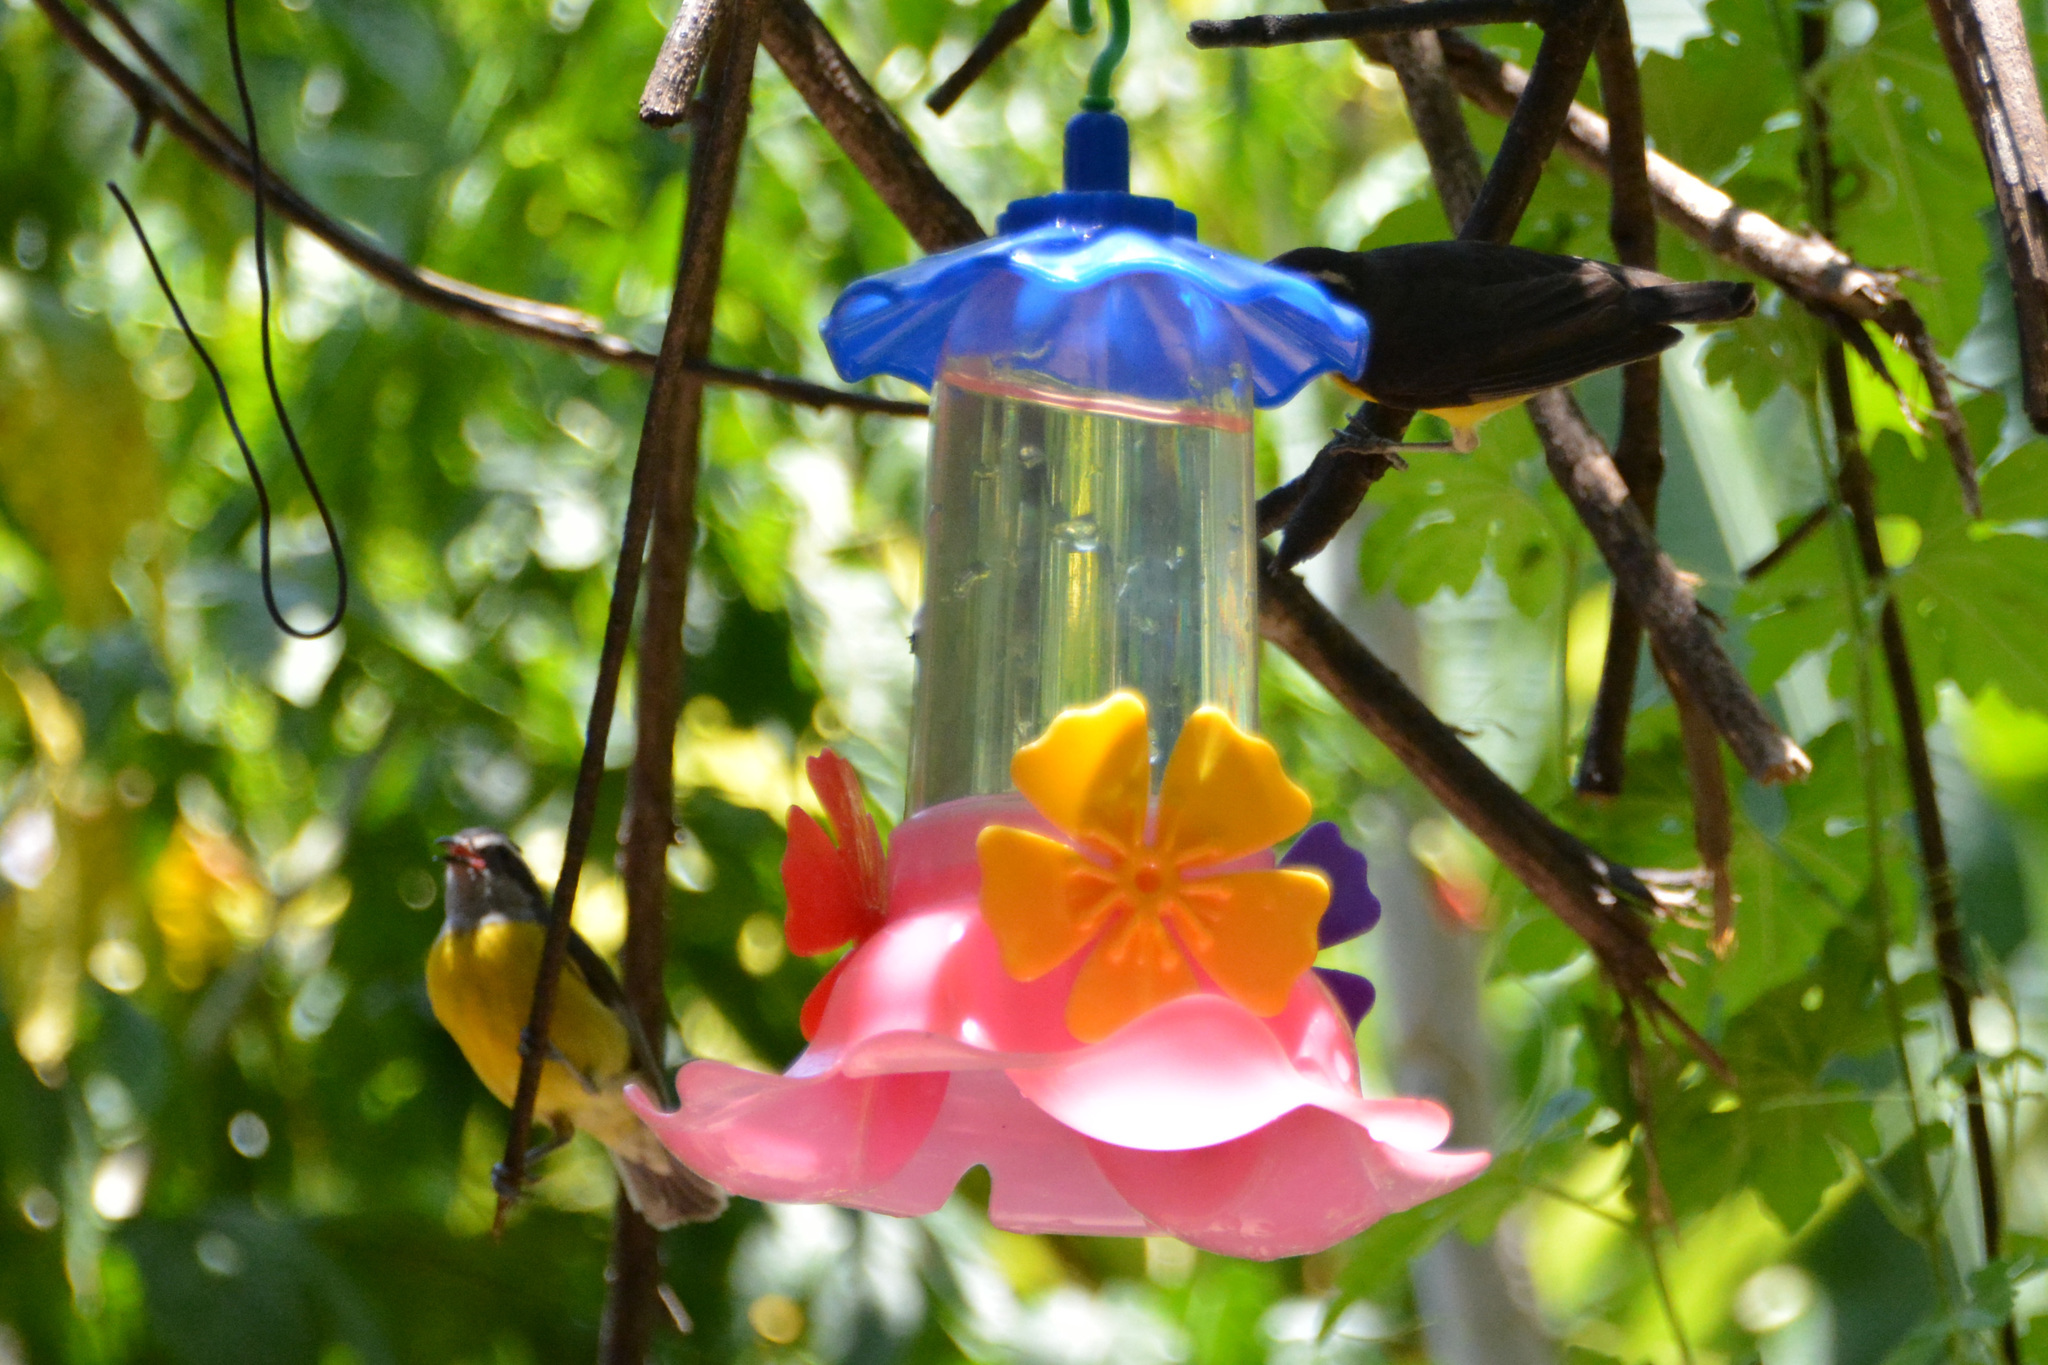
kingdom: Animalia
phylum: Chordata
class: Aves
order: Passeriformes
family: Thraupidae
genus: Coereba
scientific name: Coereba flaveola
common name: Bananaquit
